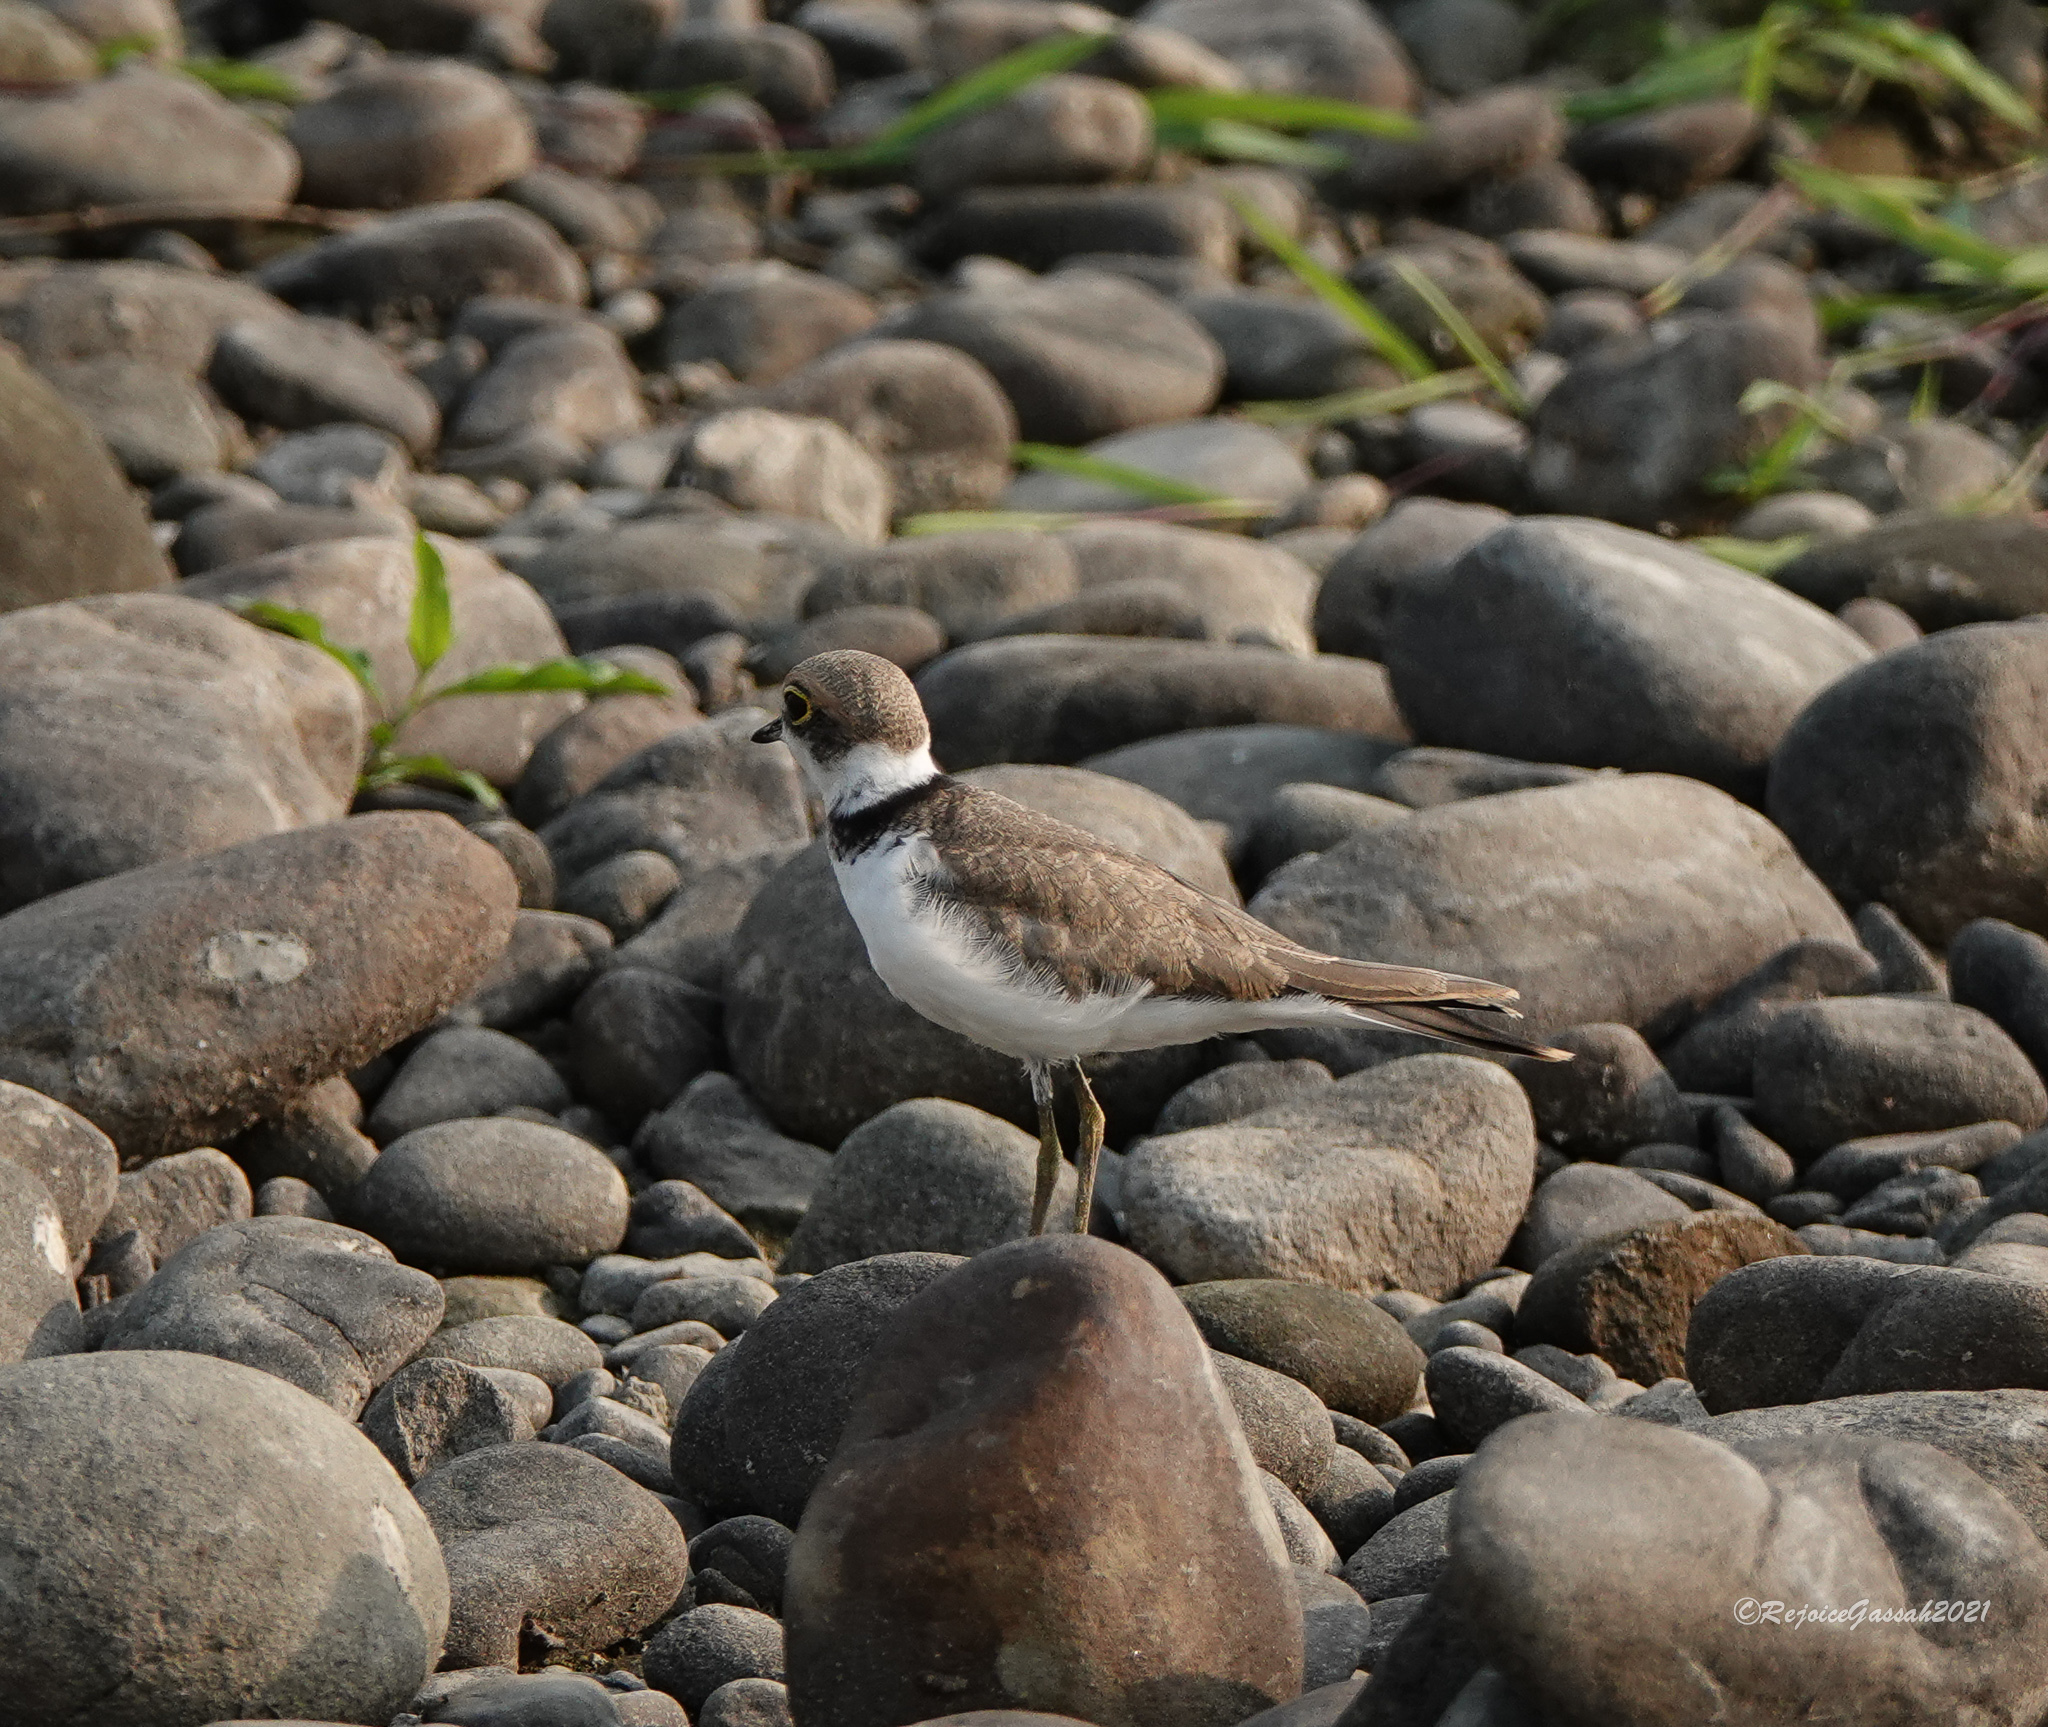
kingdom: Animalia
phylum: Chordata
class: Aves
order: Charadriiformes
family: Charadriidae
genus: Charadrius
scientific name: Charadrius dubius
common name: Little ringed plover
